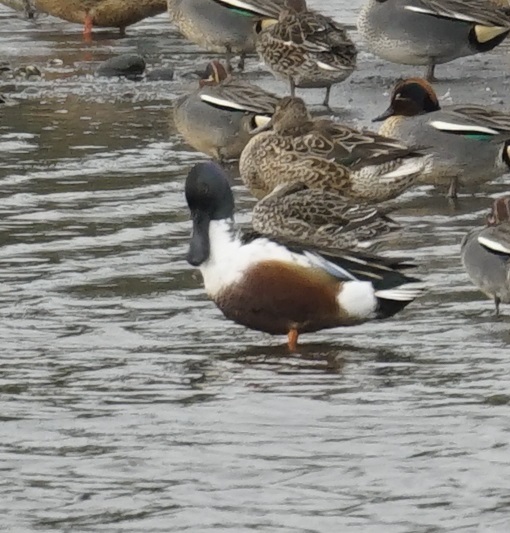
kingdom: Animalia
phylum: Chordata
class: Aves
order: Anseriformes
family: Anatidae
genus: Spatula
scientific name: Spatula clypeata
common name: Northern shoveler
